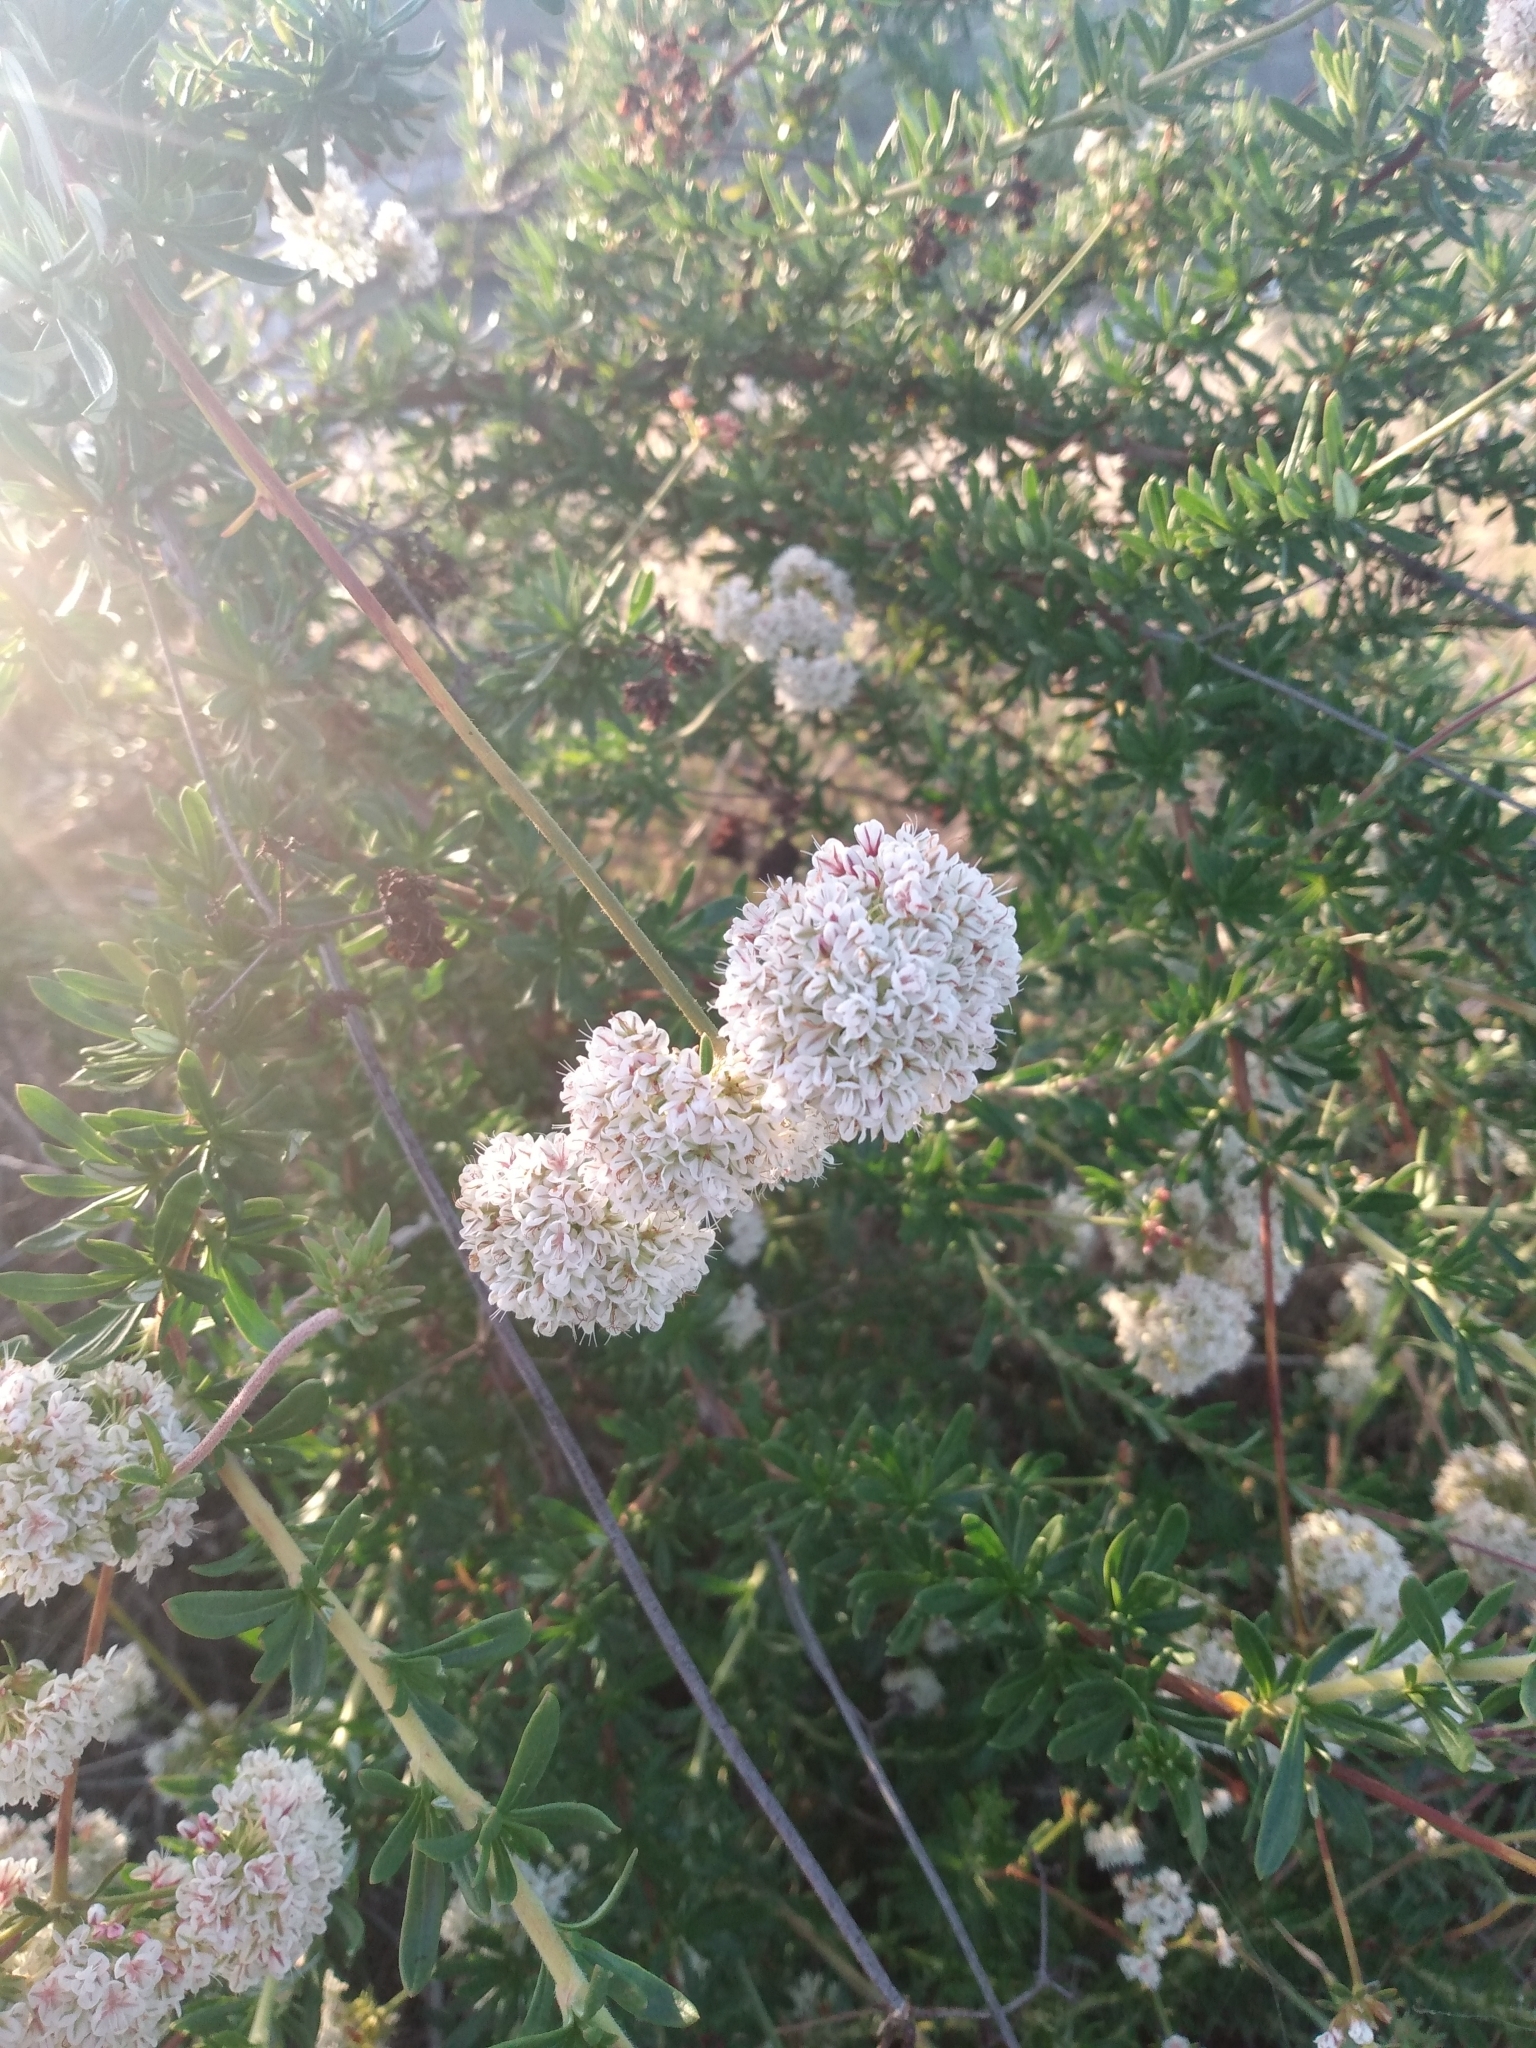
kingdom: Plantae
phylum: Tracheophyta
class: Magnoliopsida
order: Caryophyllales
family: Polygonaceae
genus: Eriogonum
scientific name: Eriogonum fasciculatum
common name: California wild buckwheat
